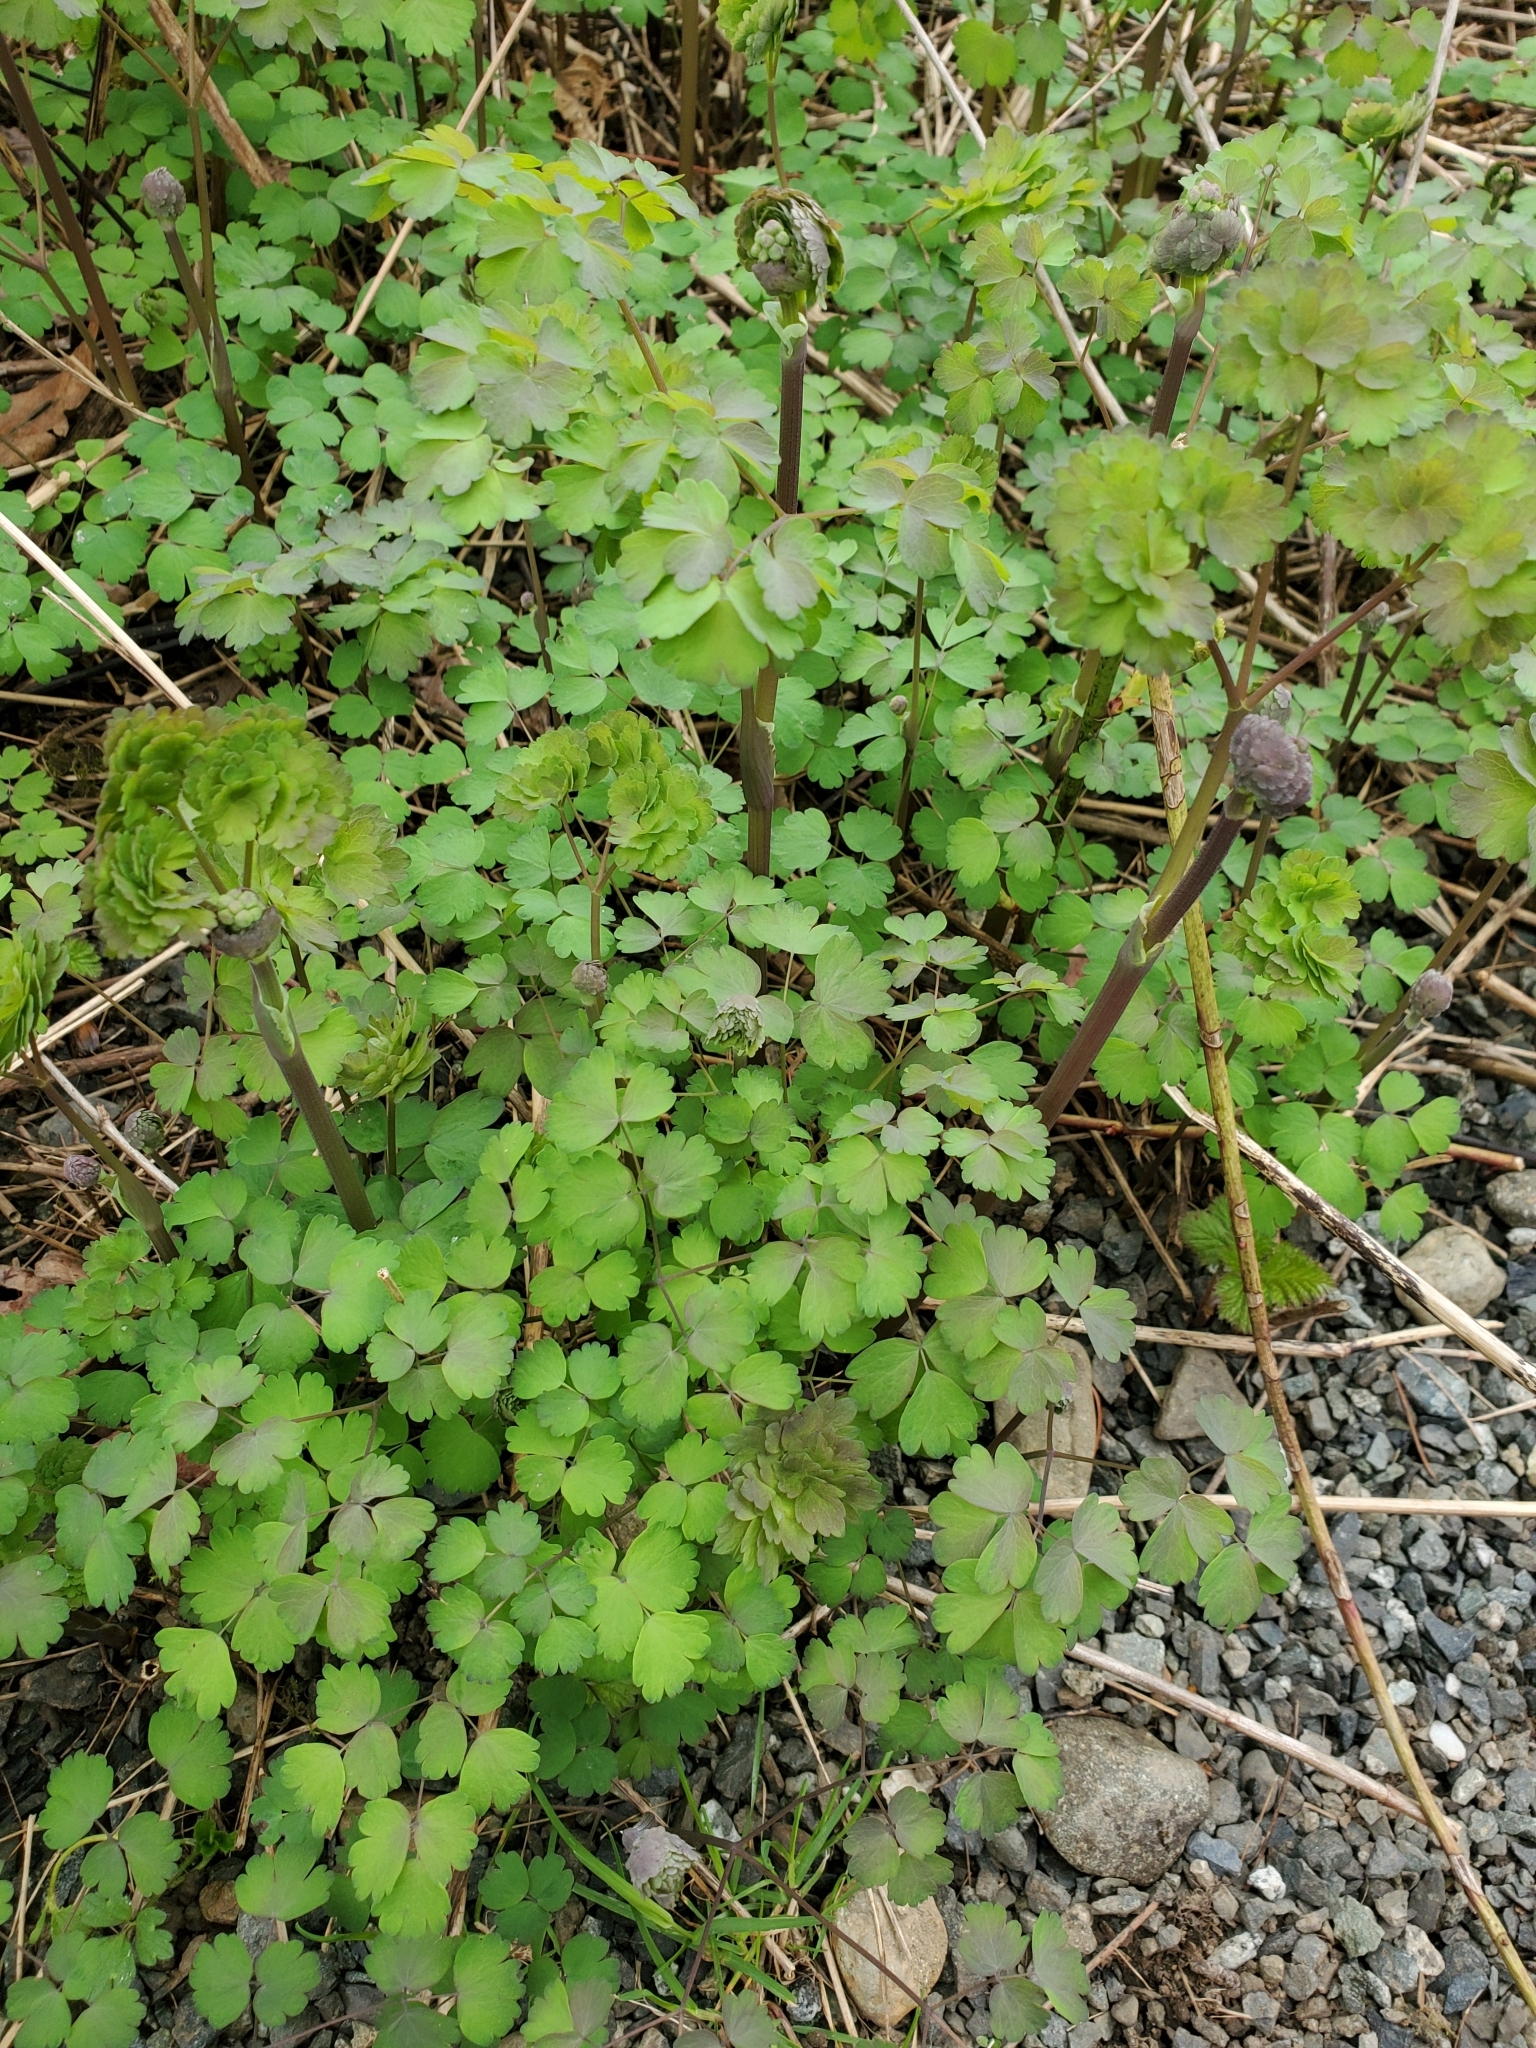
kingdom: Plantae
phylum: Tracheophyta
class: Magnoliopsida
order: Ranunculales
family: Ranunculaceae
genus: Thalictrum
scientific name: Thalictrum occidentale
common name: Western meadow-rue
